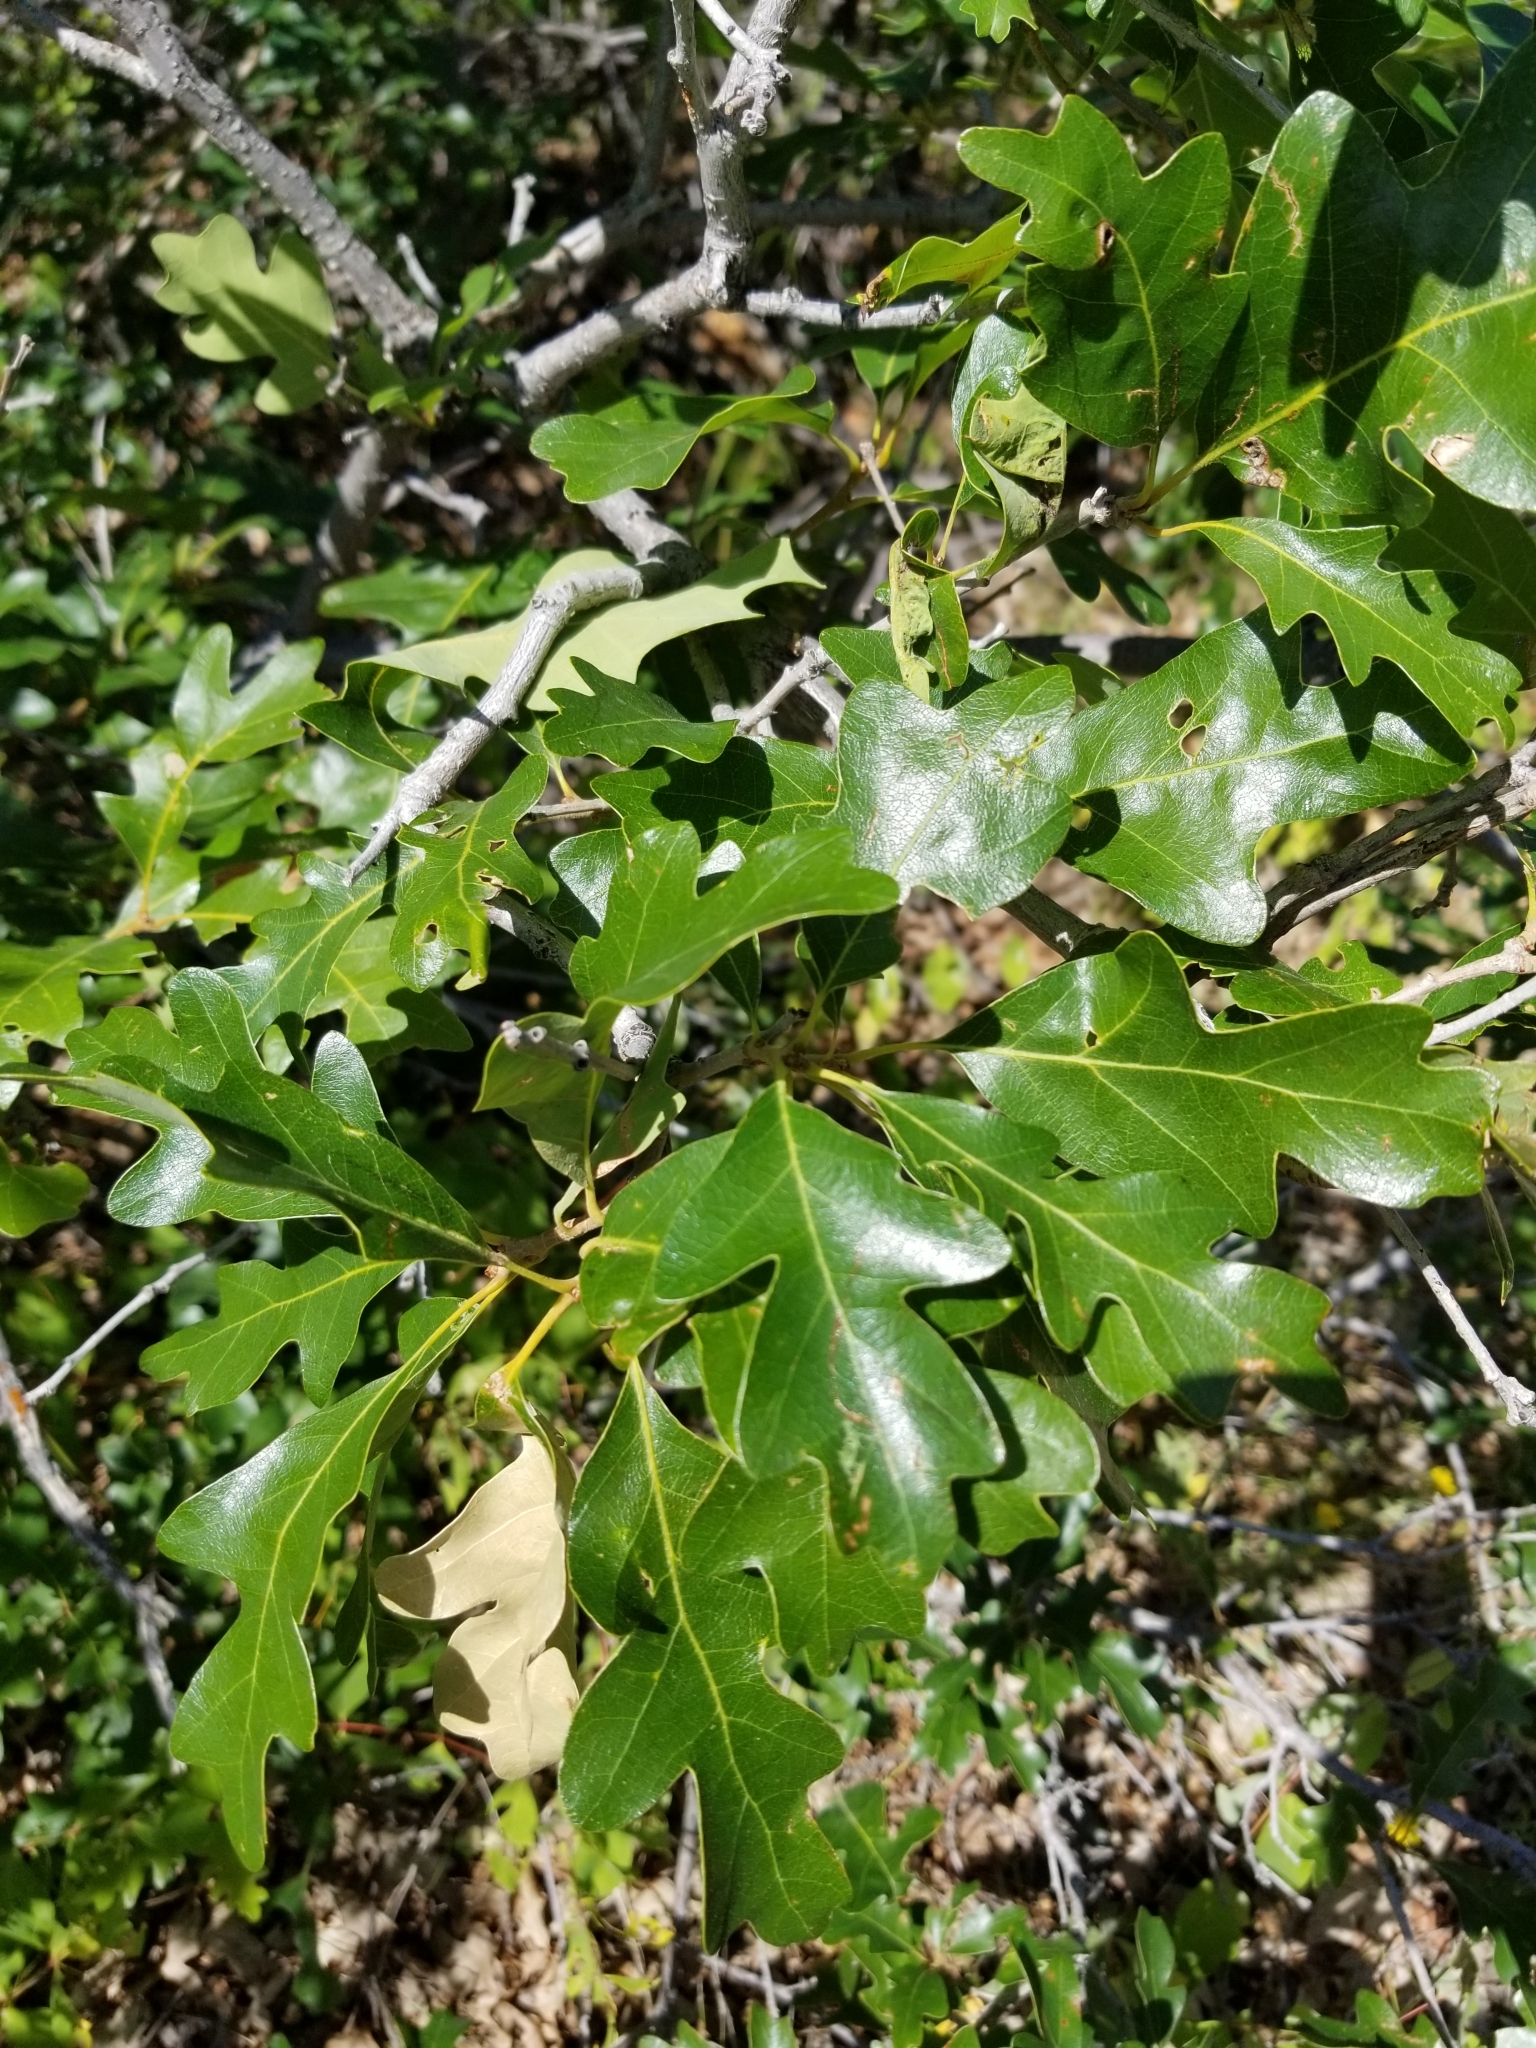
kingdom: Plantae
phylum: Tracheophyta
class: Magnoliopsida
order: Fagales
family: Fagaceae
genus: Quercus
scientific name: Quercus gambelii
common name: Gambel oak
